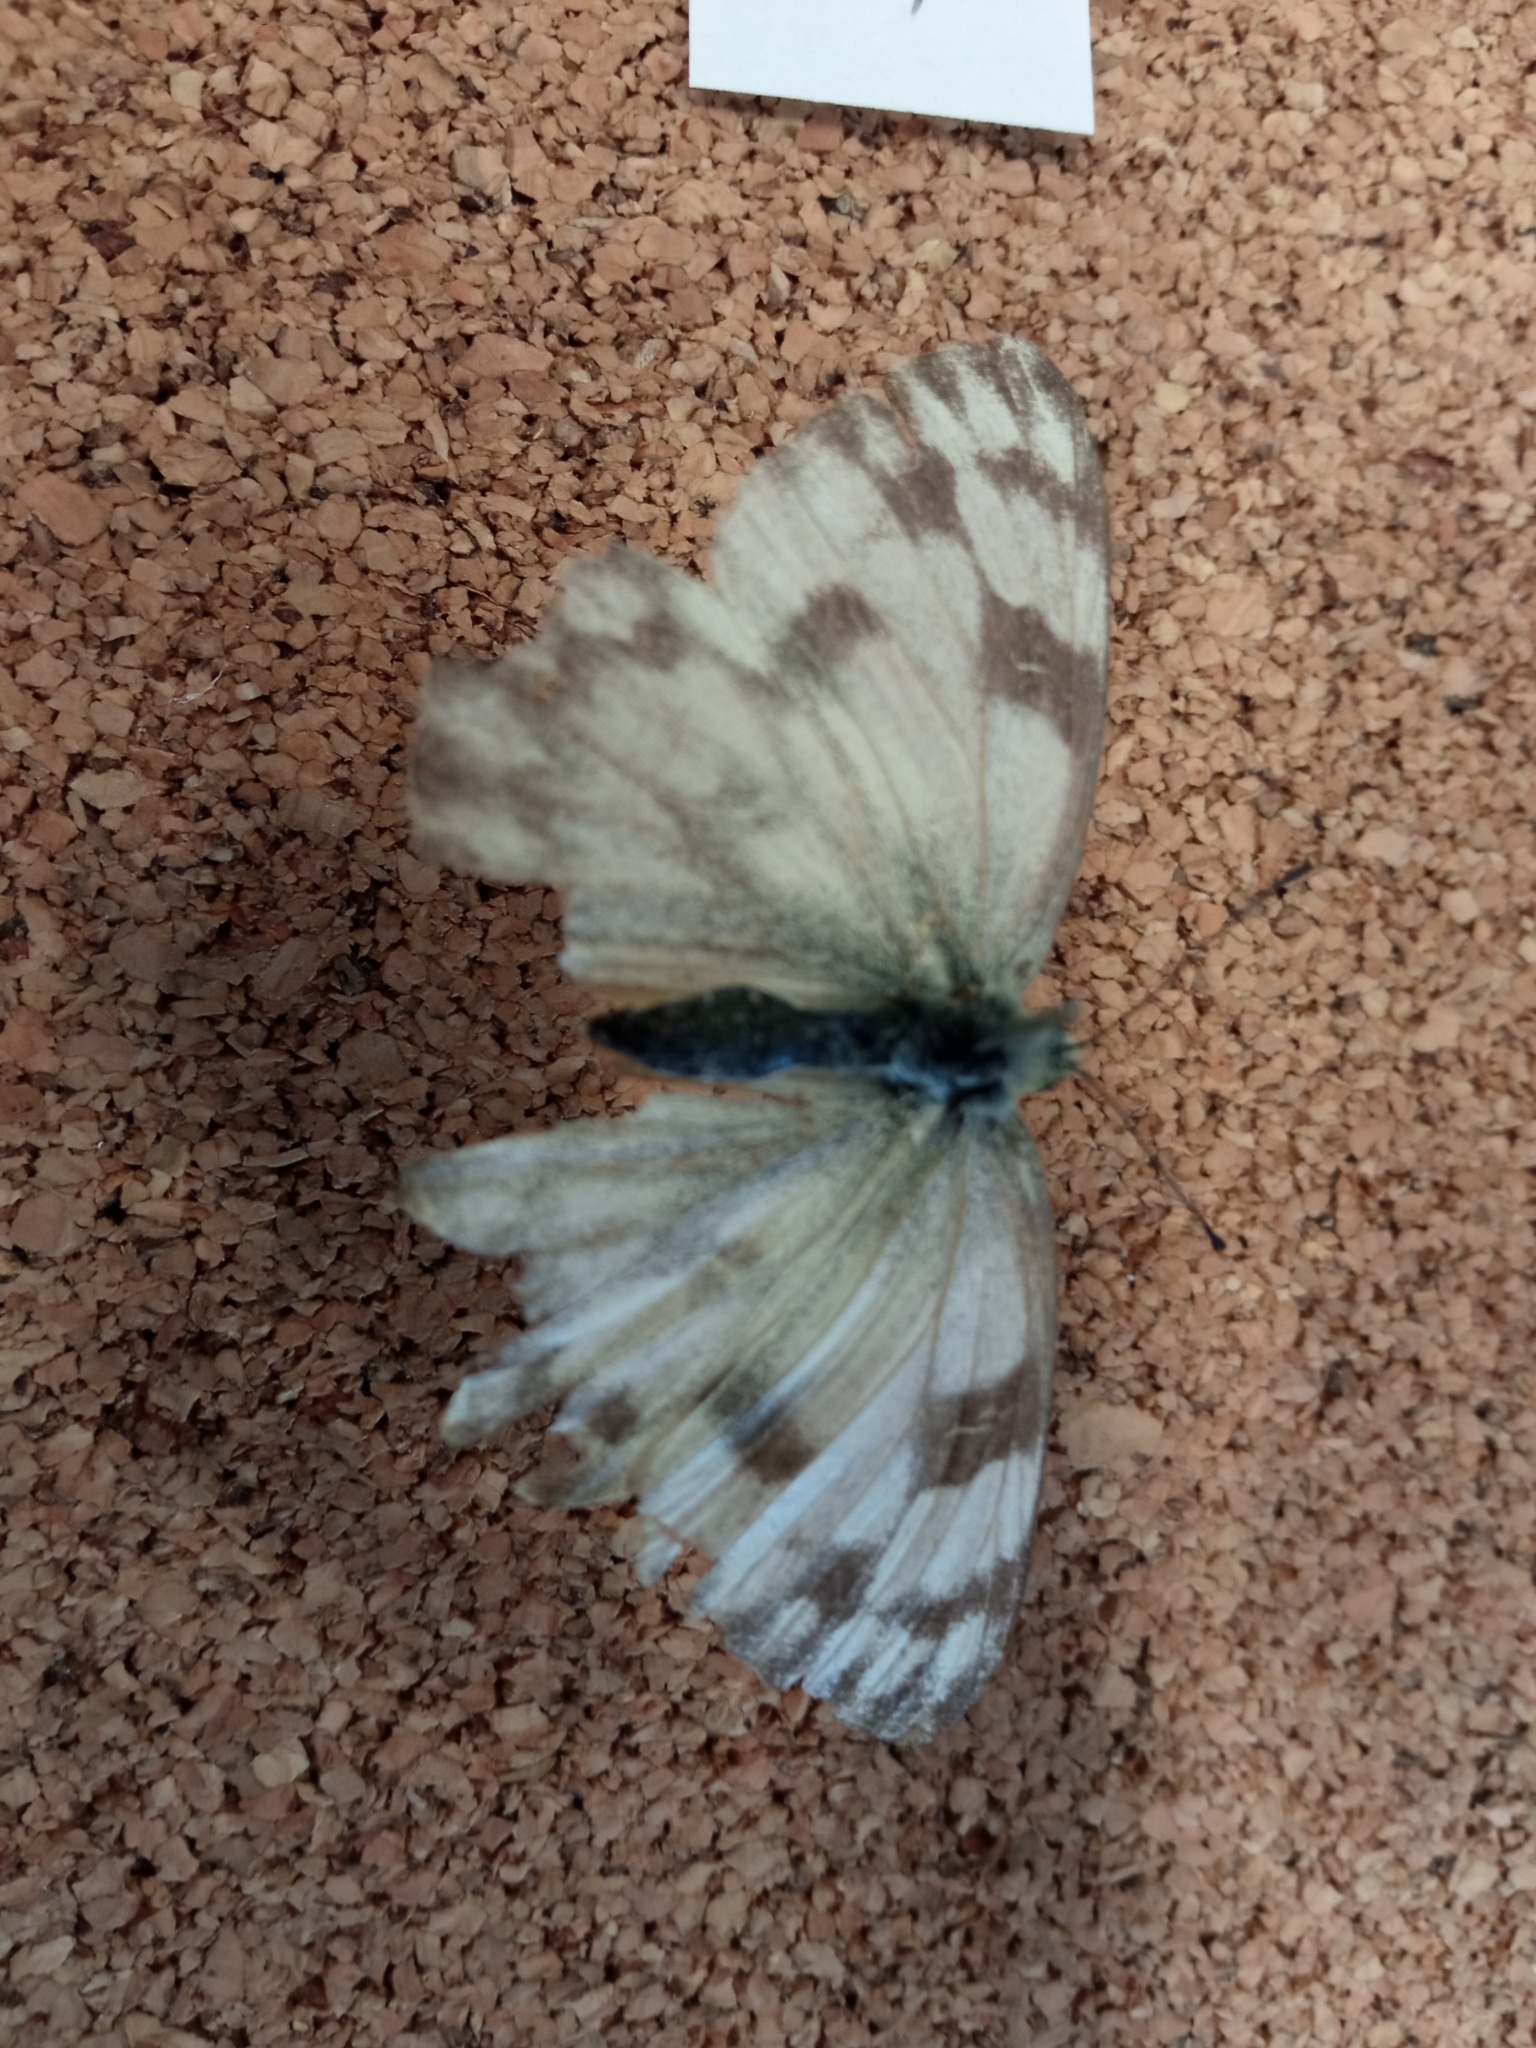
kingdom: Animalia
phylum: Arthropoda
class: Insecta
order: Lepidoptera
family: Pieridae
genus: Pontia
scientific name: Pontia protodice
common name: Checkered white
